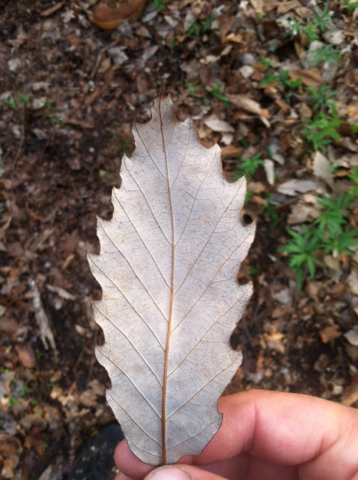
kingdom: Plantae
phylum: Tracheophyta
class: Magnoliopsida
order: Fagales
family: Fagaceae
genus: Quercus
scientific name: Quercus muehlenbergii
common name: Chinkapin oak
